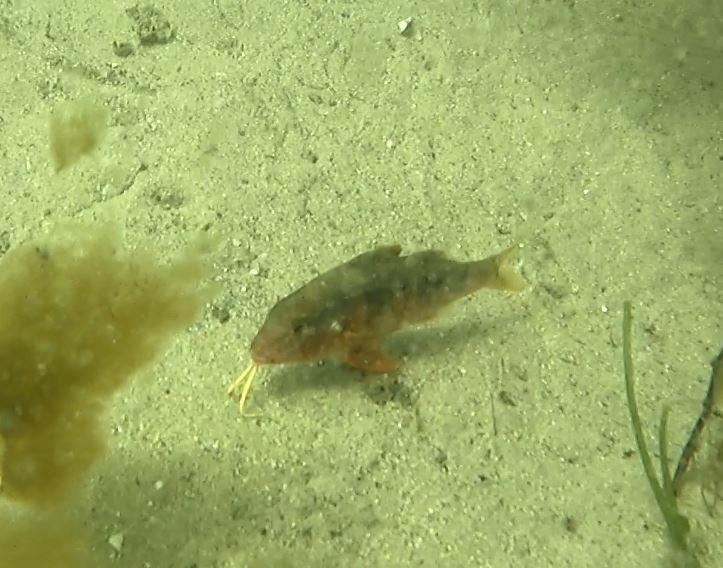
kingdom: Animalia
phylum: Chordata
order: Perciformes
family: Mullidae
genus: Upeneichthys
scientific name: Upeneichthys lineatus
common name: Red mullet
